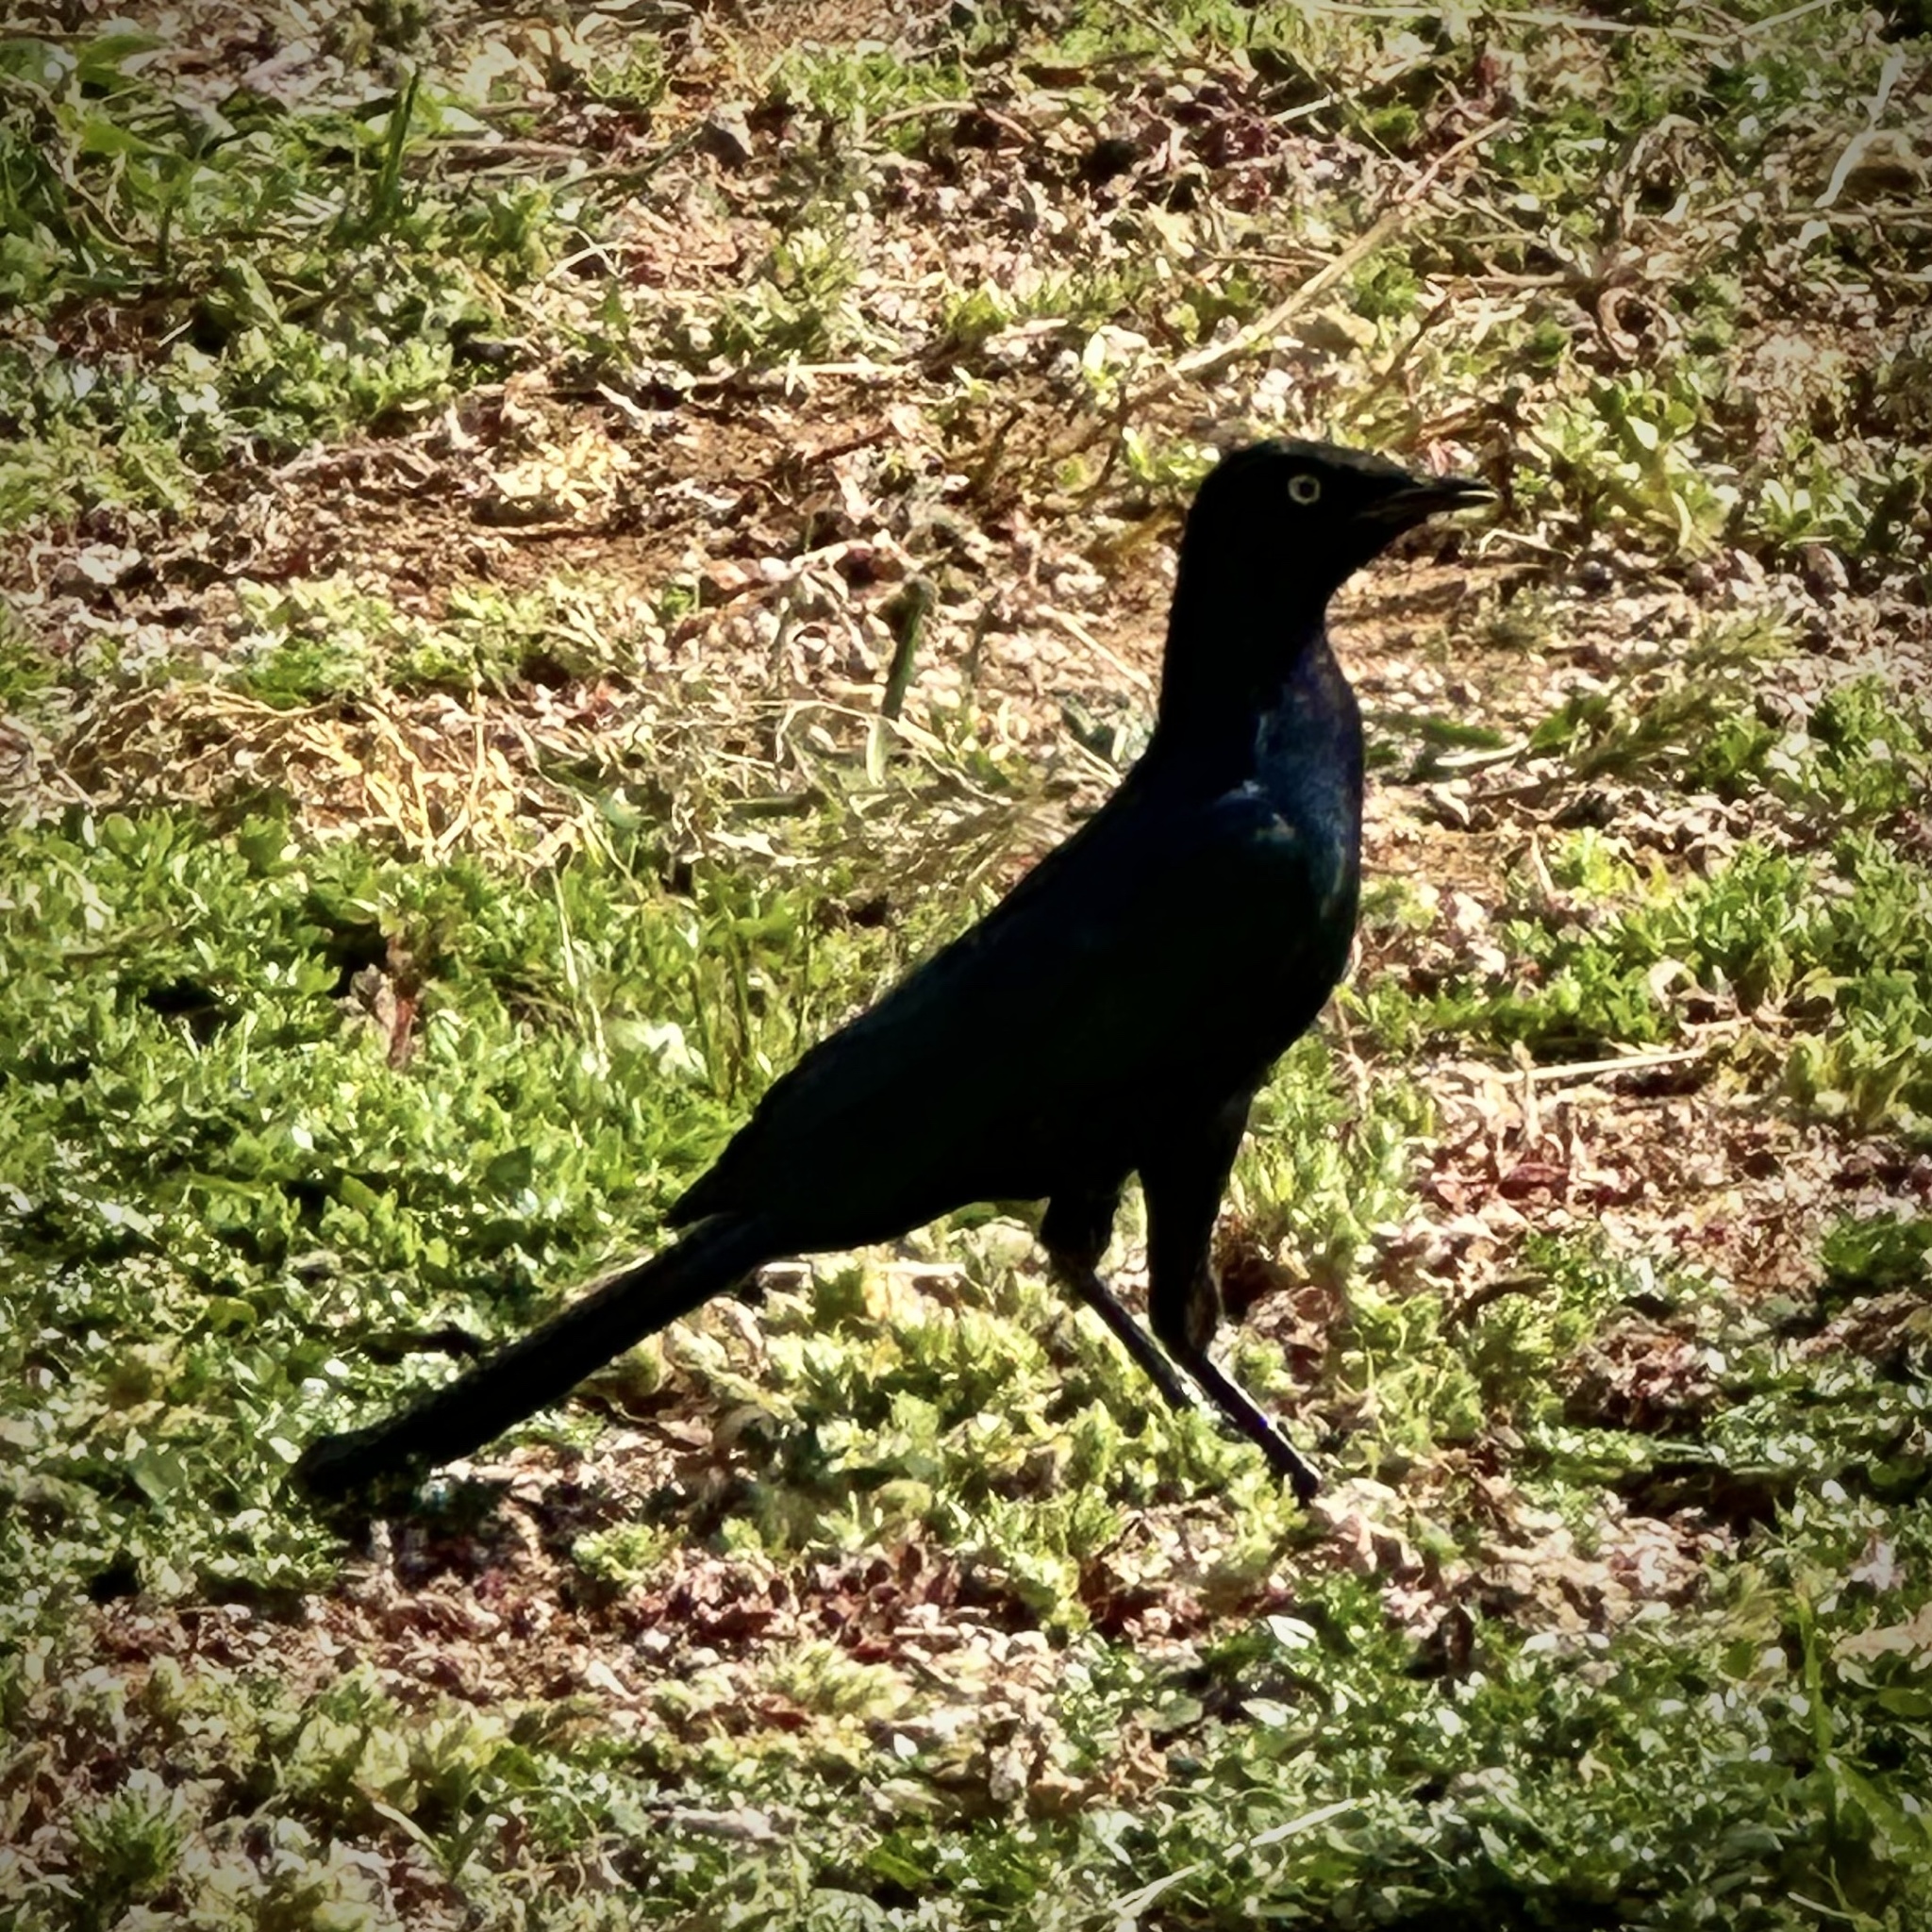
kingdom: Animalia
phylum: Chordata
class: Aves
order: Passeriformes
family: Sturnidae
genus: Lamprotornis
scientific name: Lamprotornis purpuroptera
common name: Rüppell's starling
